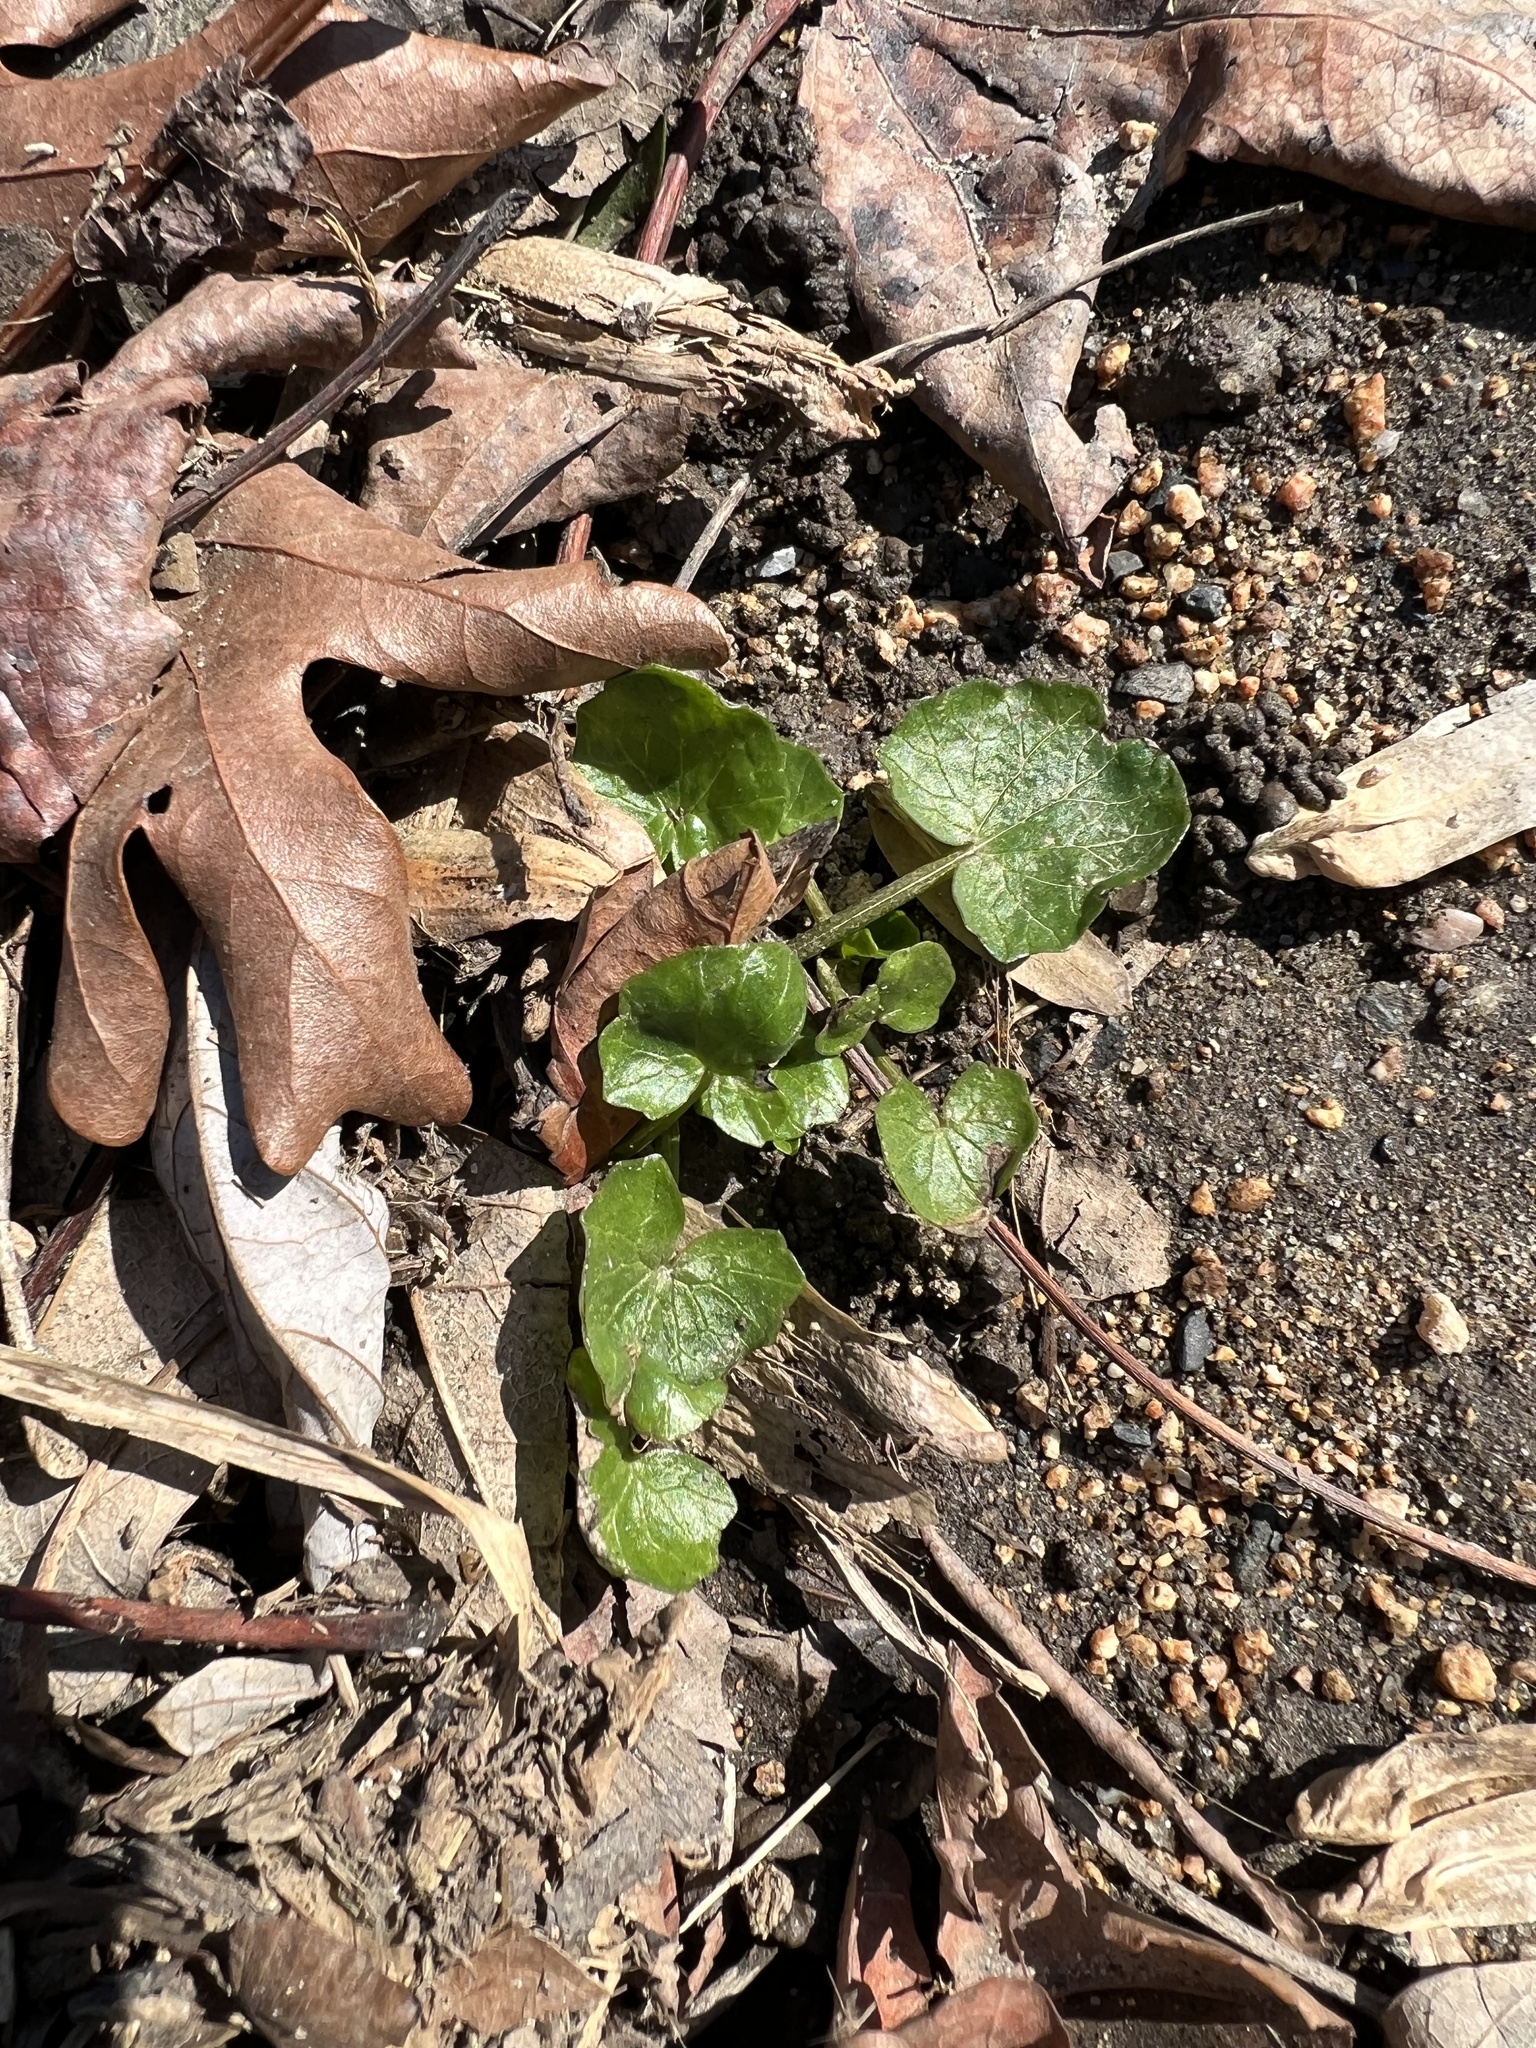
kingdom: Plantae
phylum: Tracheophyta
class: Magnoliopsida
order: Ranunculales
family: Ranunculaceae
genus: Ficaria
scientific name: Ficaria verna
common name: Lesser celandine
